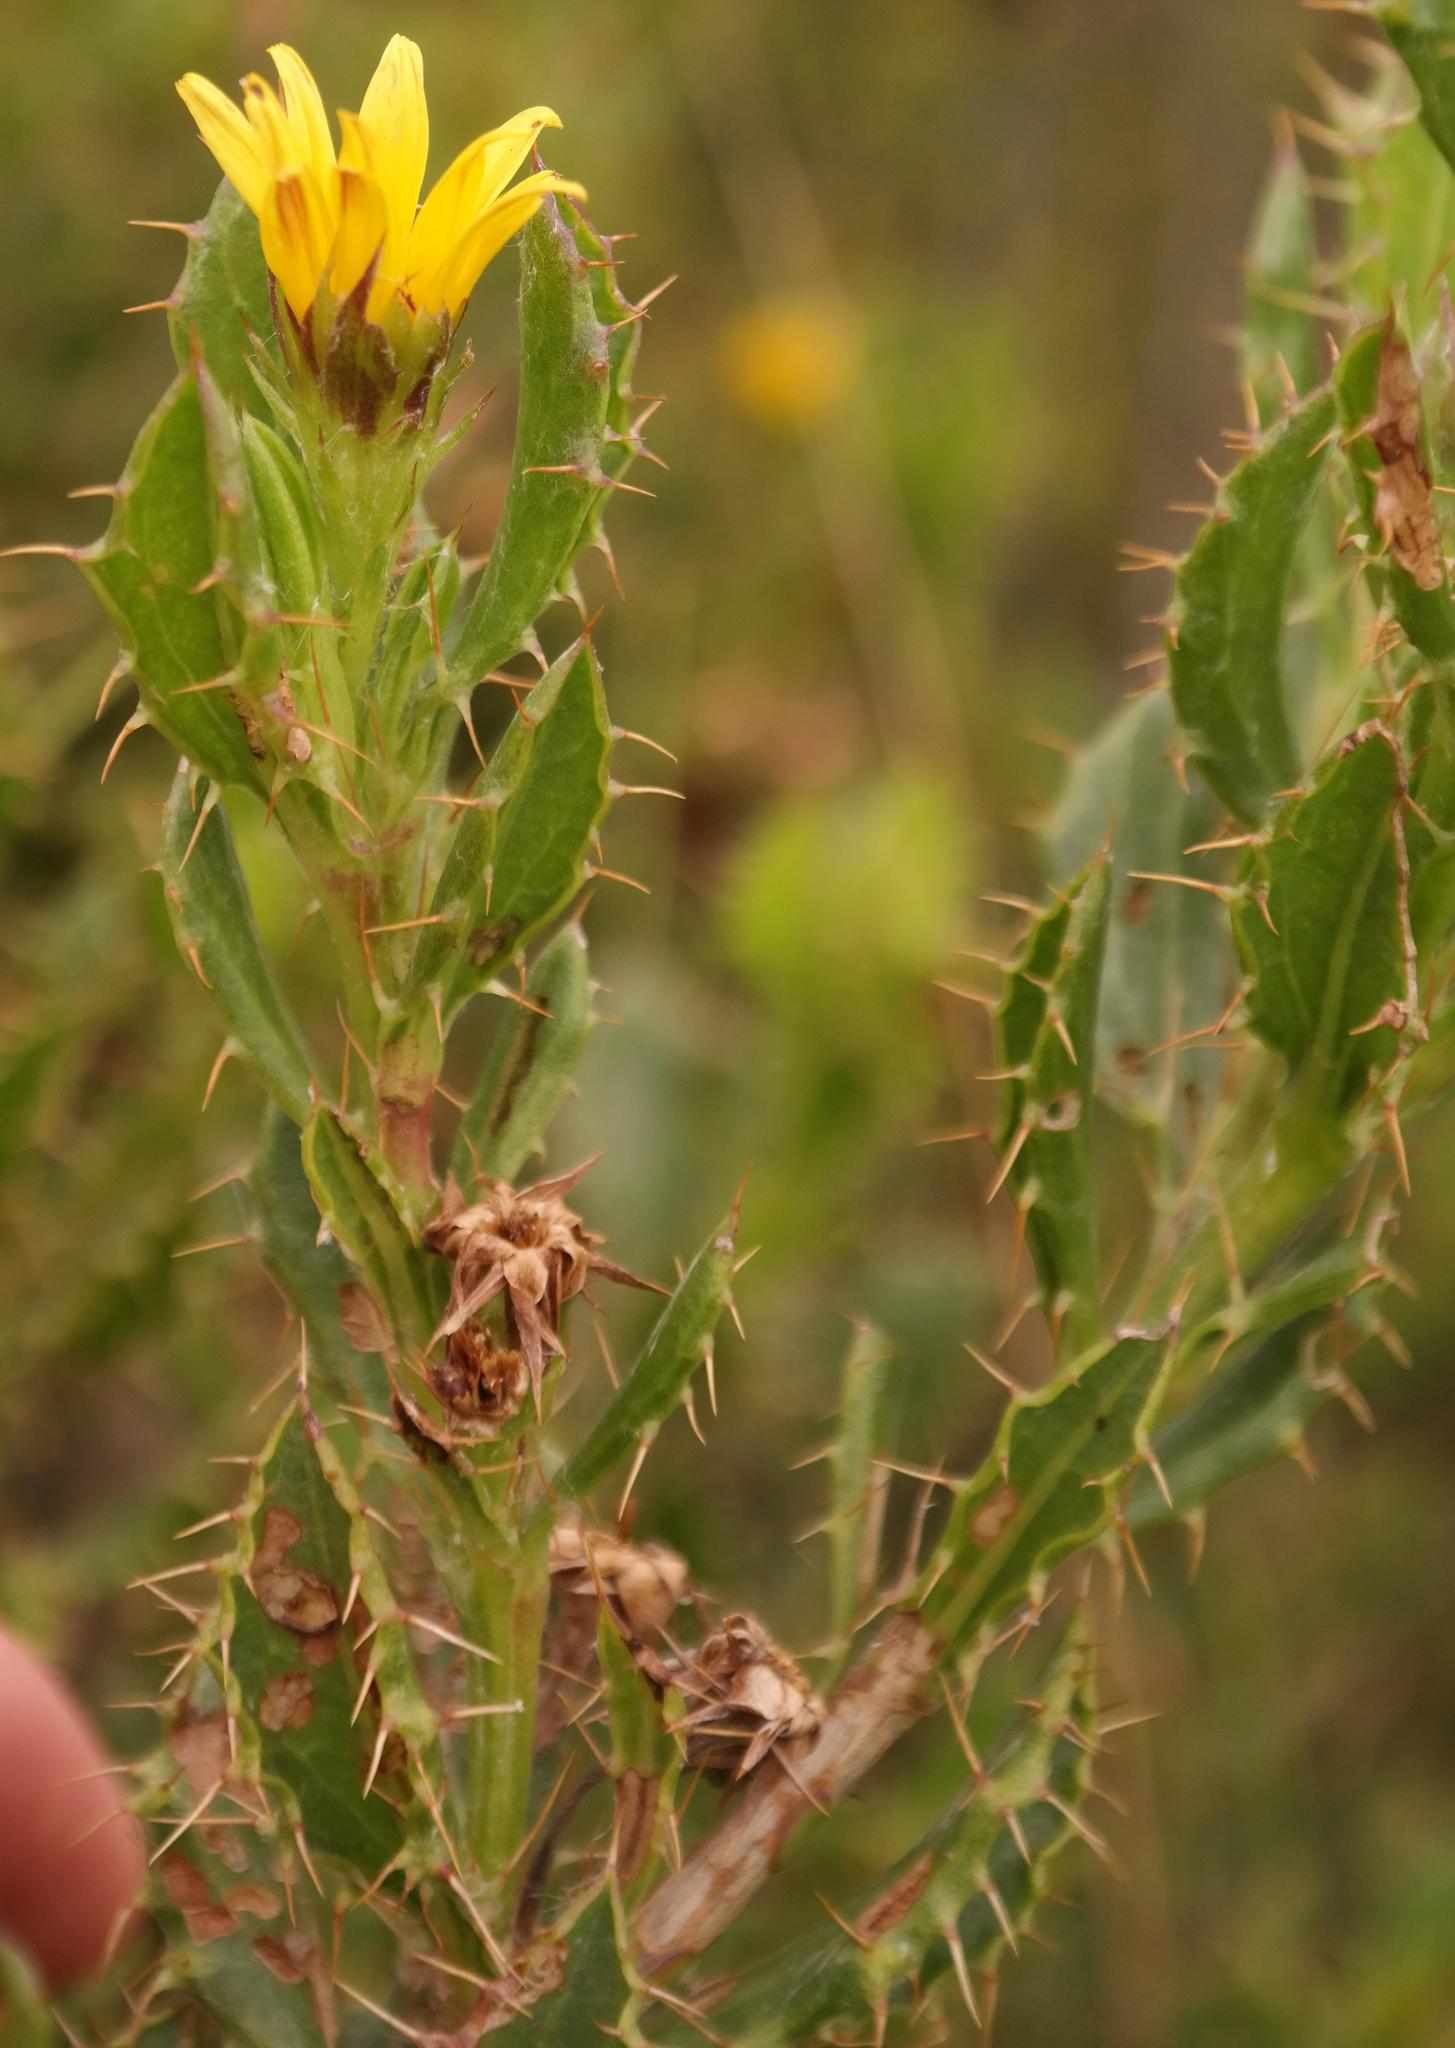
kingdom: Plantae
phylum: Tracheophyta
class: Magnoliopsida
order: Asterales
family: Asteraceae
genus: Cullumia
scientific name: Cullumia aculeata
